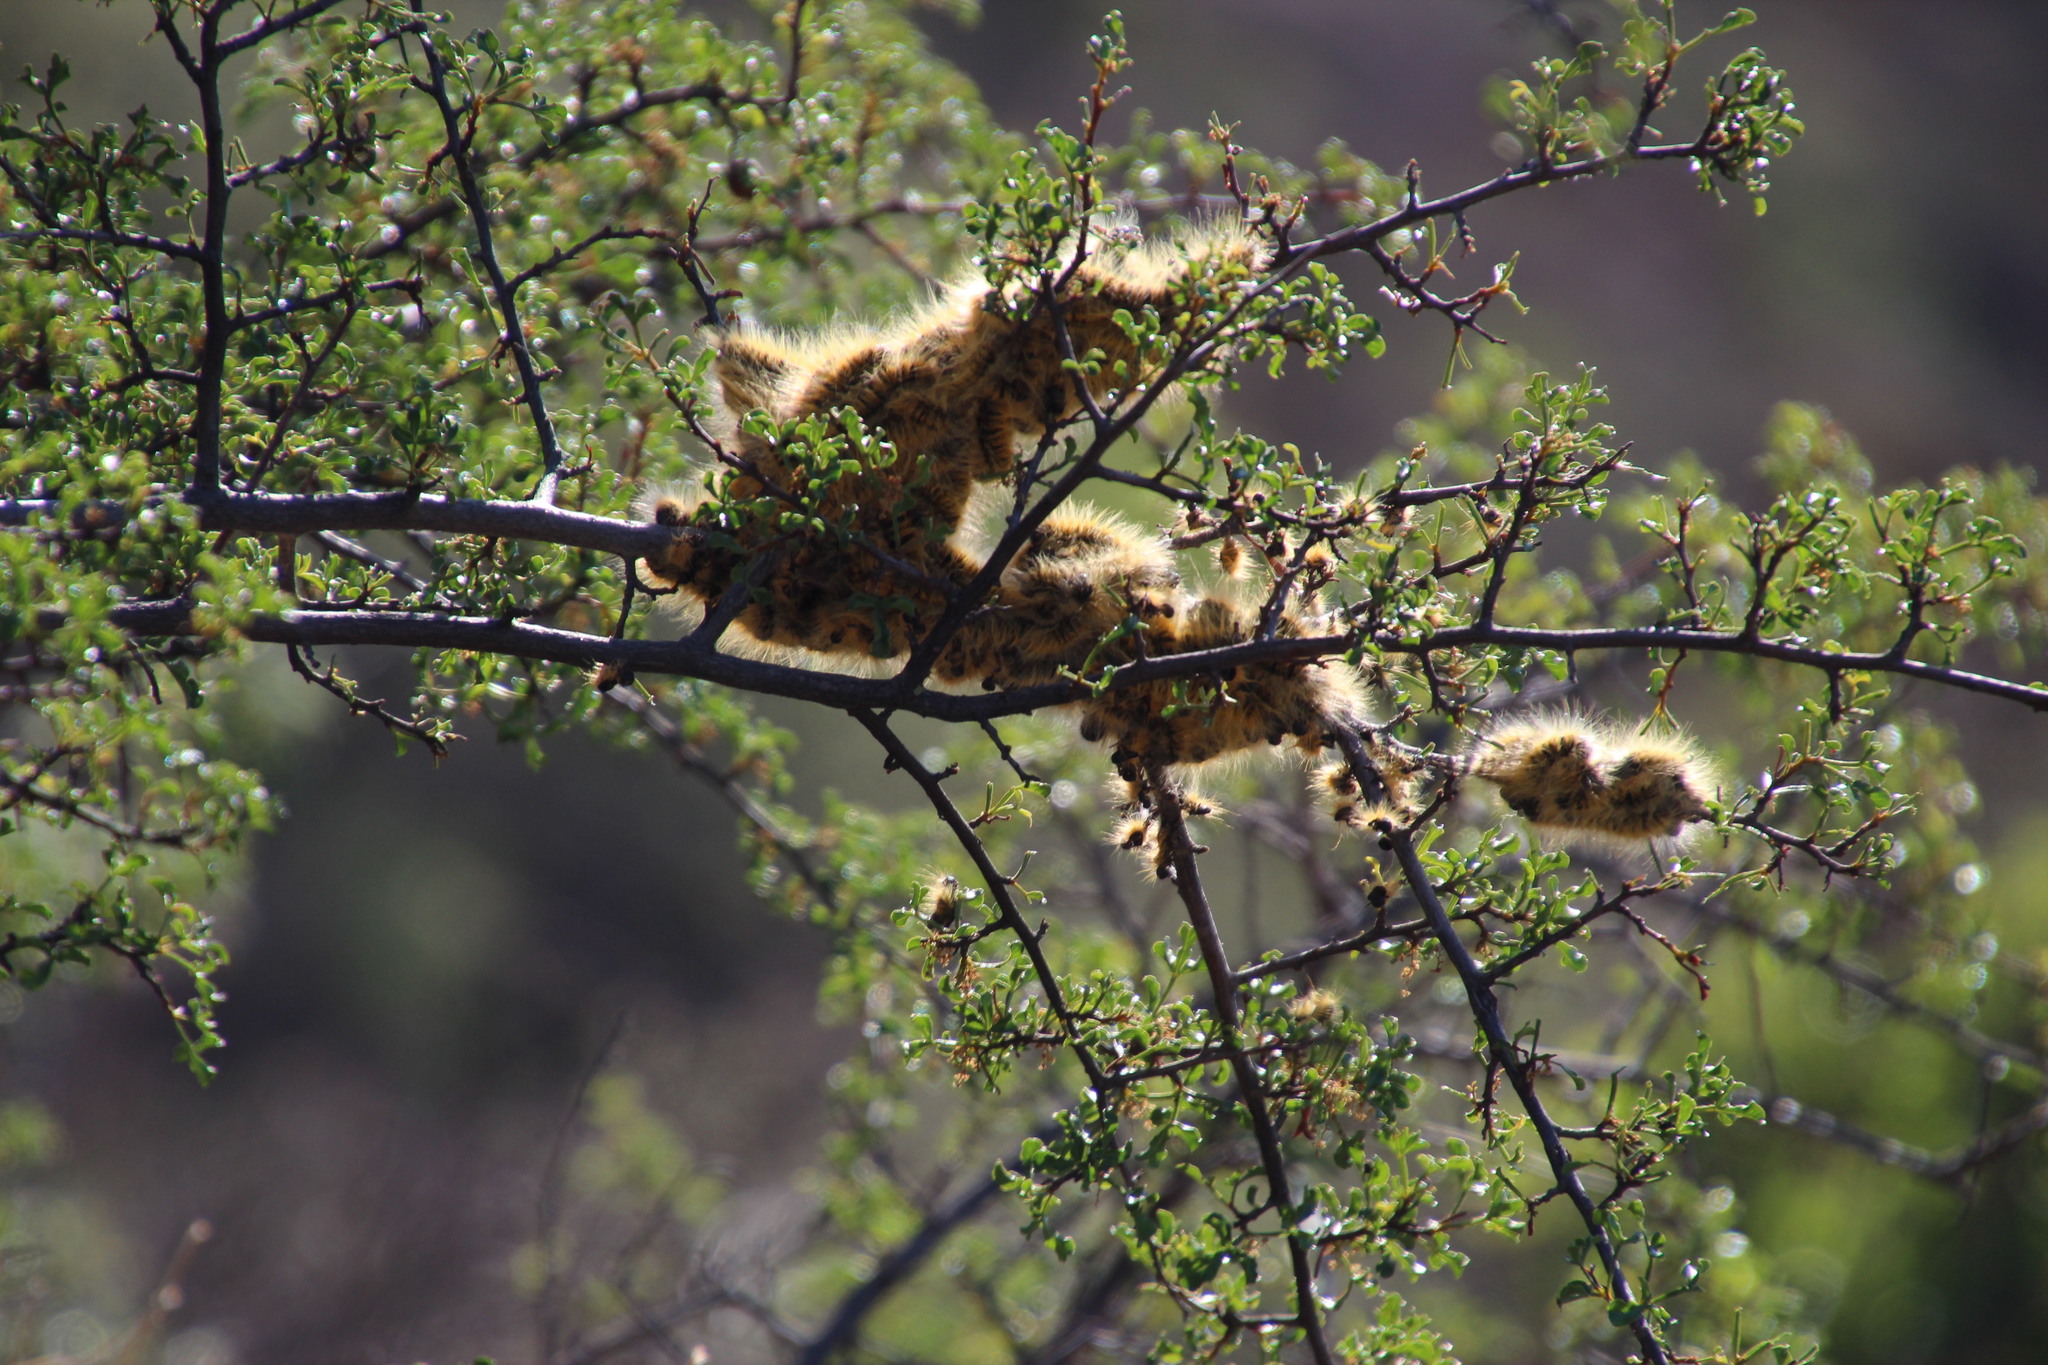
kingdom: Plantae
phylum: Tracheophyta
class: Magnoliopsida
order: Sapindales
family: Anacardiaceae
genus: Searsia
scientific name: Searsia undulata
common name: Namaqua kunibush
